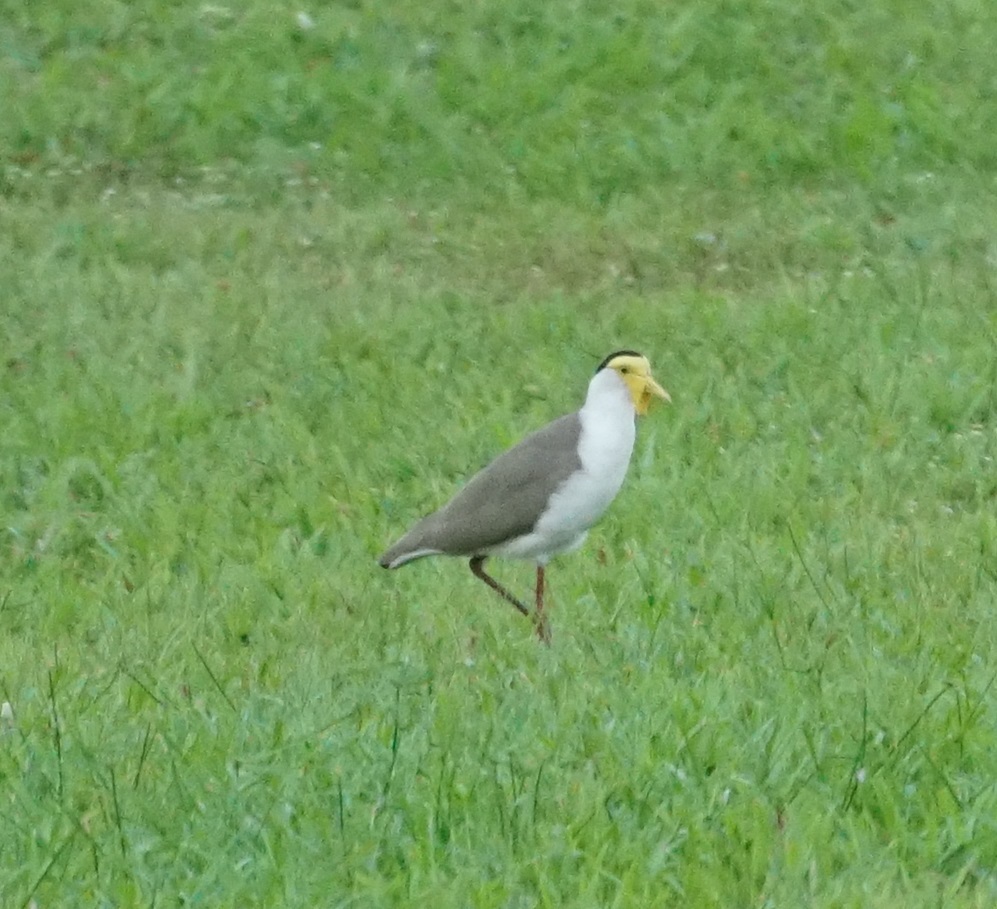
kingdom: Animalia
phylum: Chordata
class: Aves
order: Charadriiformes
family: Charadriidae
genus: Vanellus
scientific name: Vanellus miles
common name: Masked lapwing
